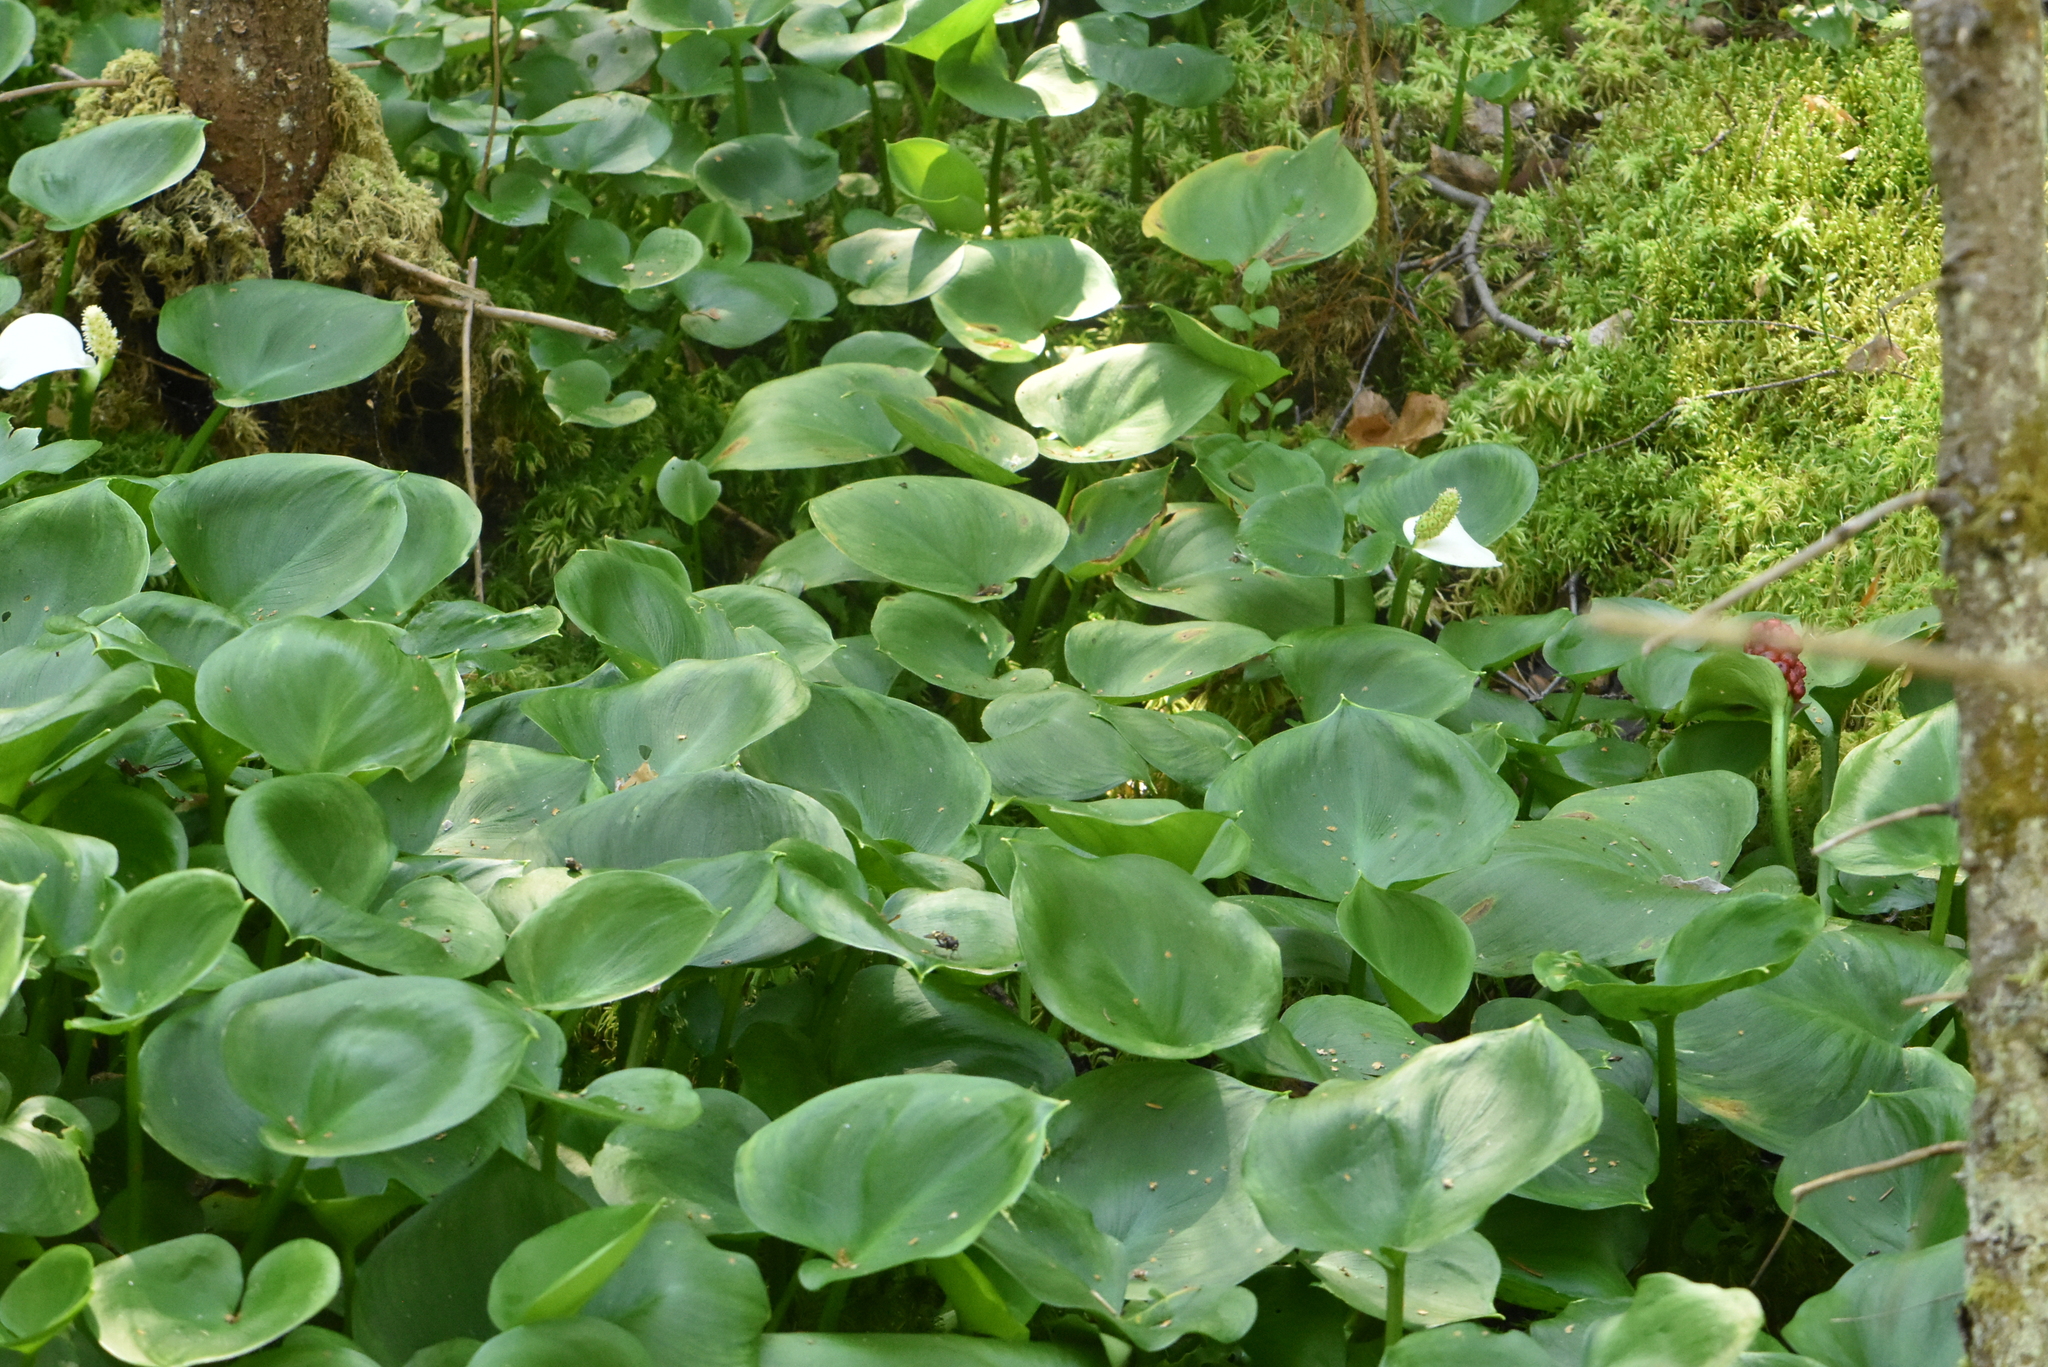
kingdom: Plantae
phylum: Tracheophyta
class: Liliopsida
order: Alismatales
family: Araceae
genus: Calla
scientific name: Calla palustris
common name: Bog arum
